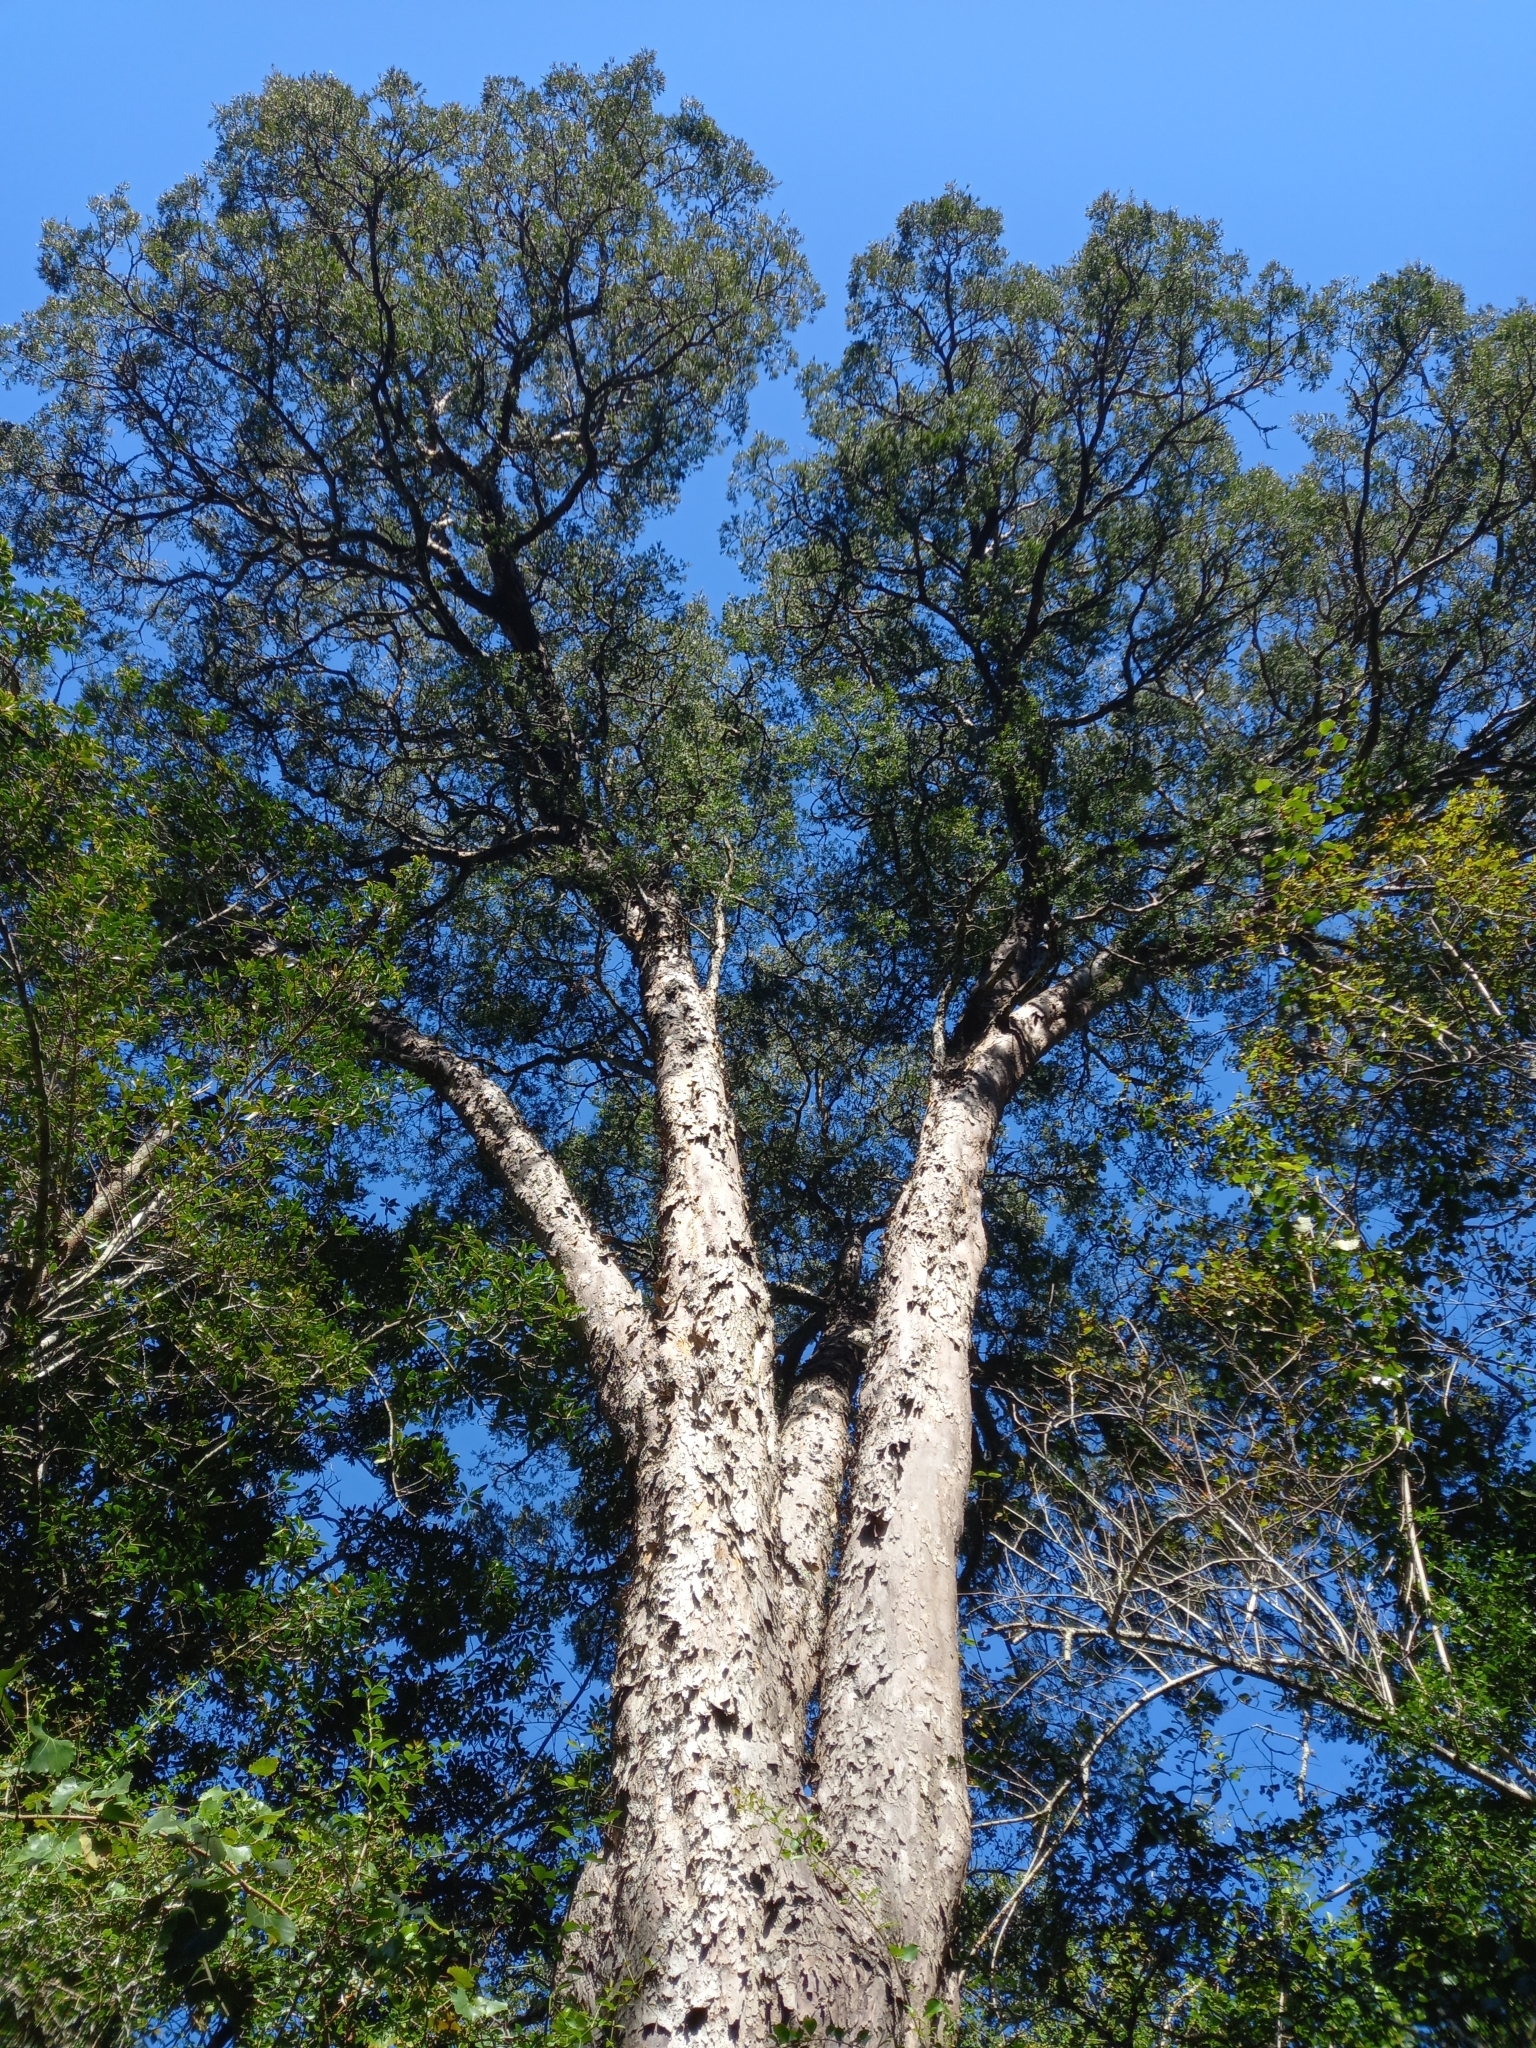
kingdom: Plantae
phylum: Tracheophyta
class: Pinopsida
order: Pinales
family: Podocarpaceae
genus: Afrocarpus
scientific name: Afrocarpus falcatus
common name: Bastard yellowwood
